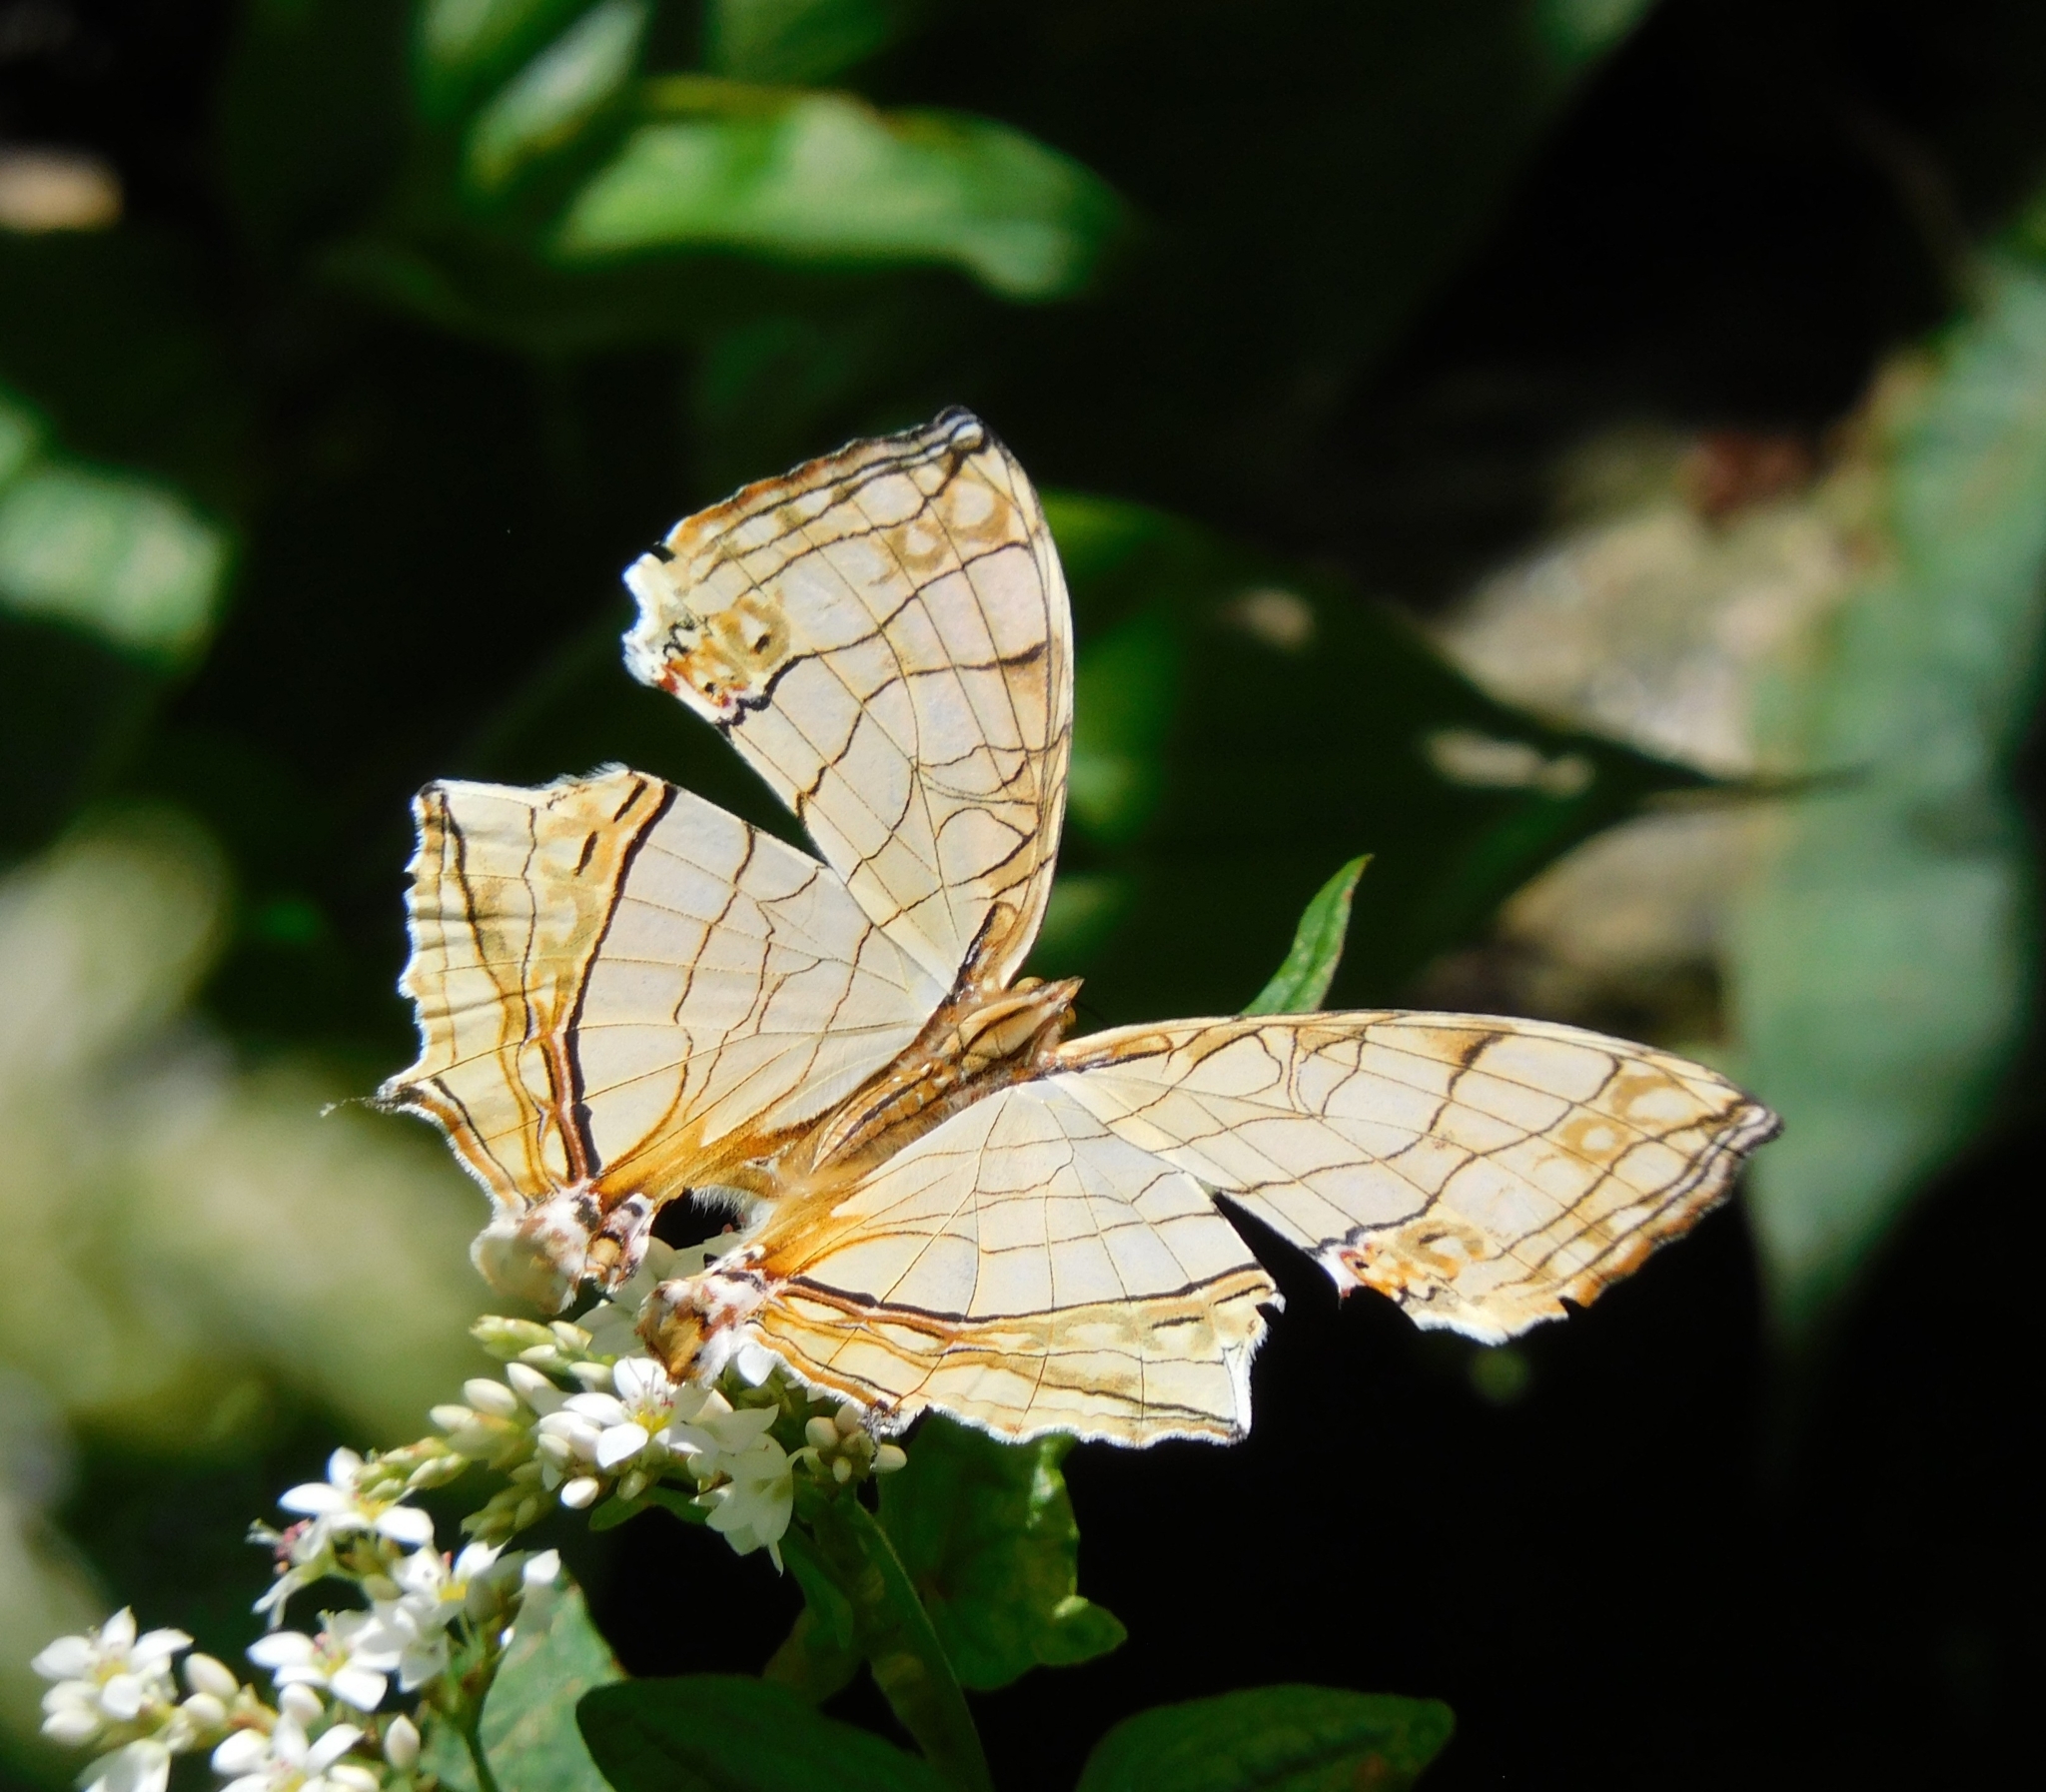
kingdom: Animalia
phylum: Arthropoda
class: Insecta
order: Lepidoptera
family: Nymphalidae
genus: Cyrestis
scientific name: Cyrestis thyodamas
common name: Common mapwing
